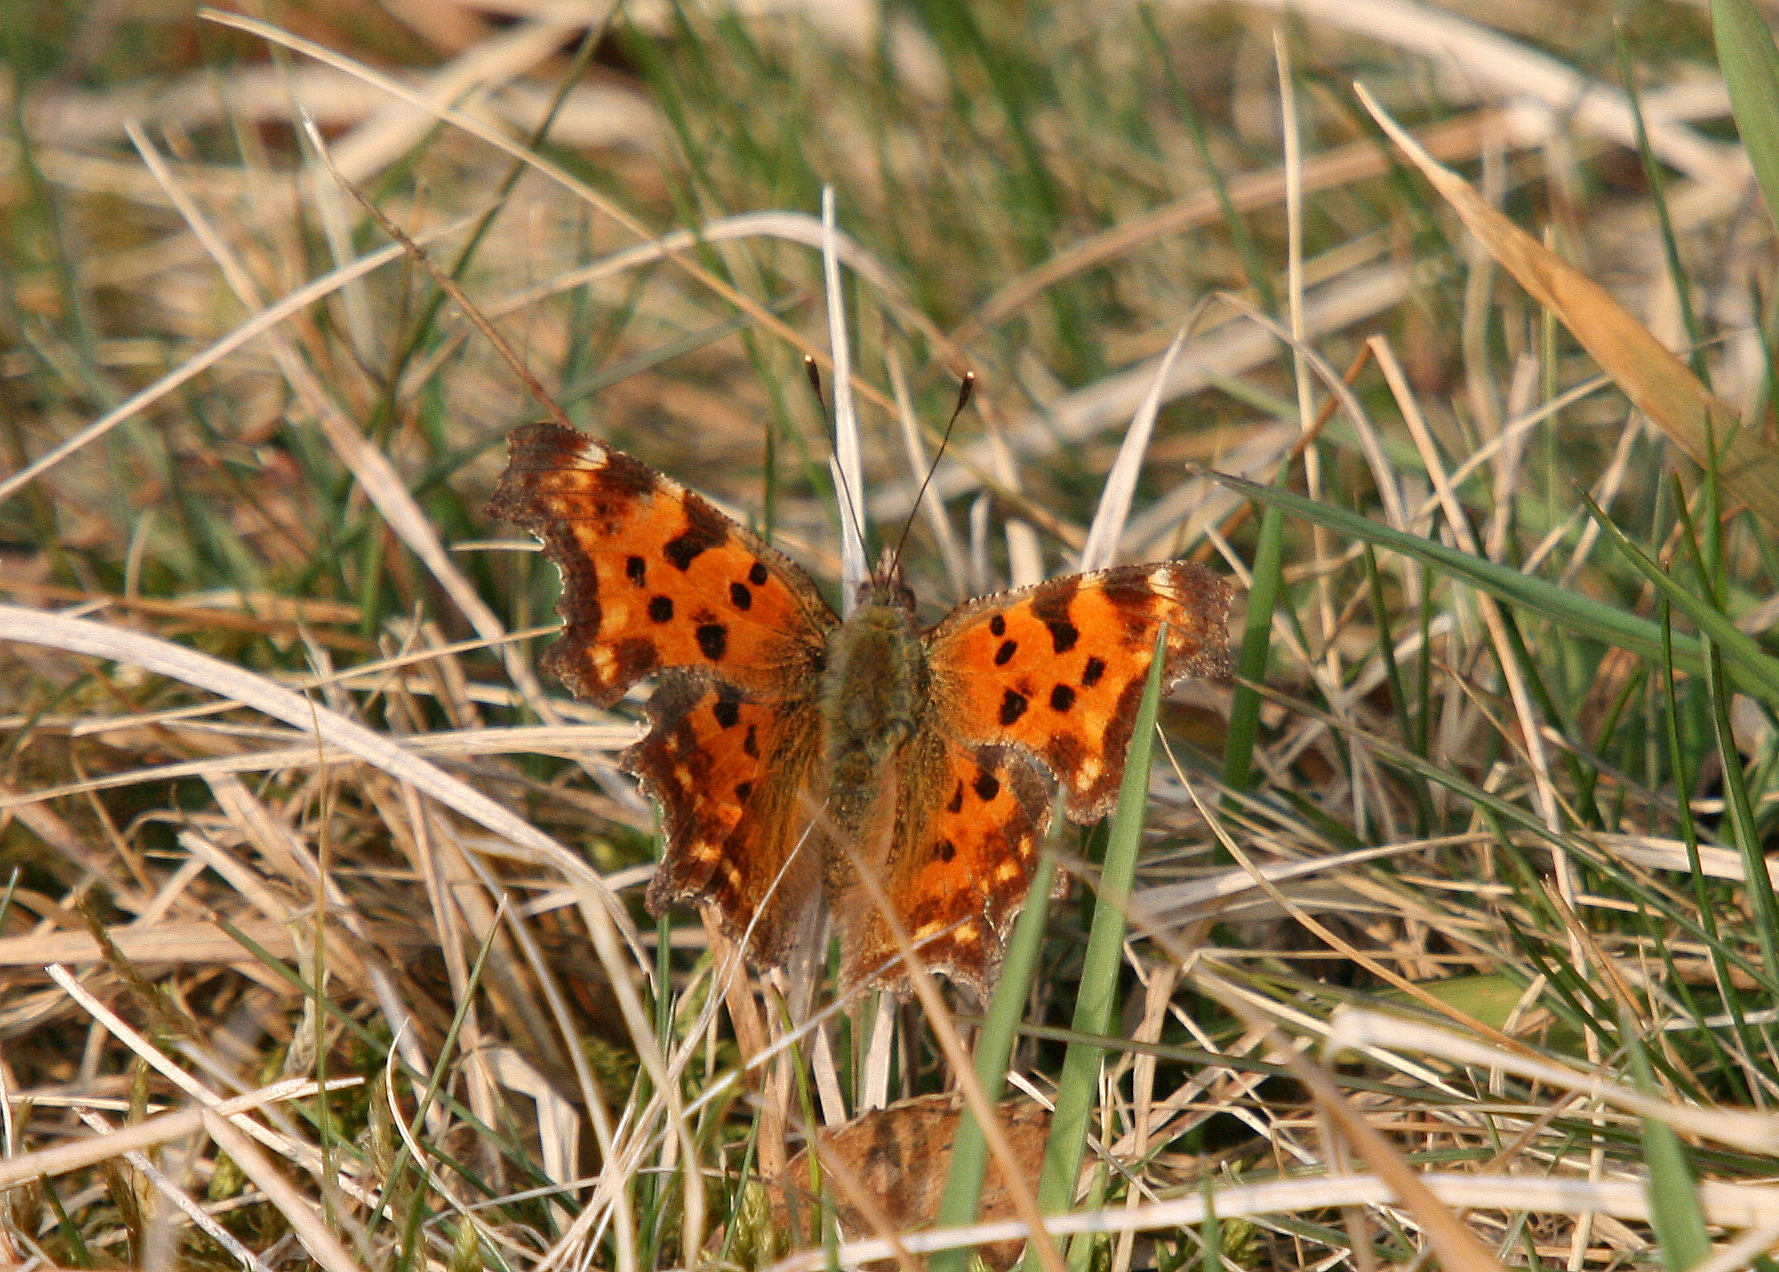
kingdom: Animalia
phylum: Arthropoda
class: Insecta
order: Lepidoptera
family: Nymphalidae
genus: Polygonia
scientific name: Polygonia c-album
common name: Comma
